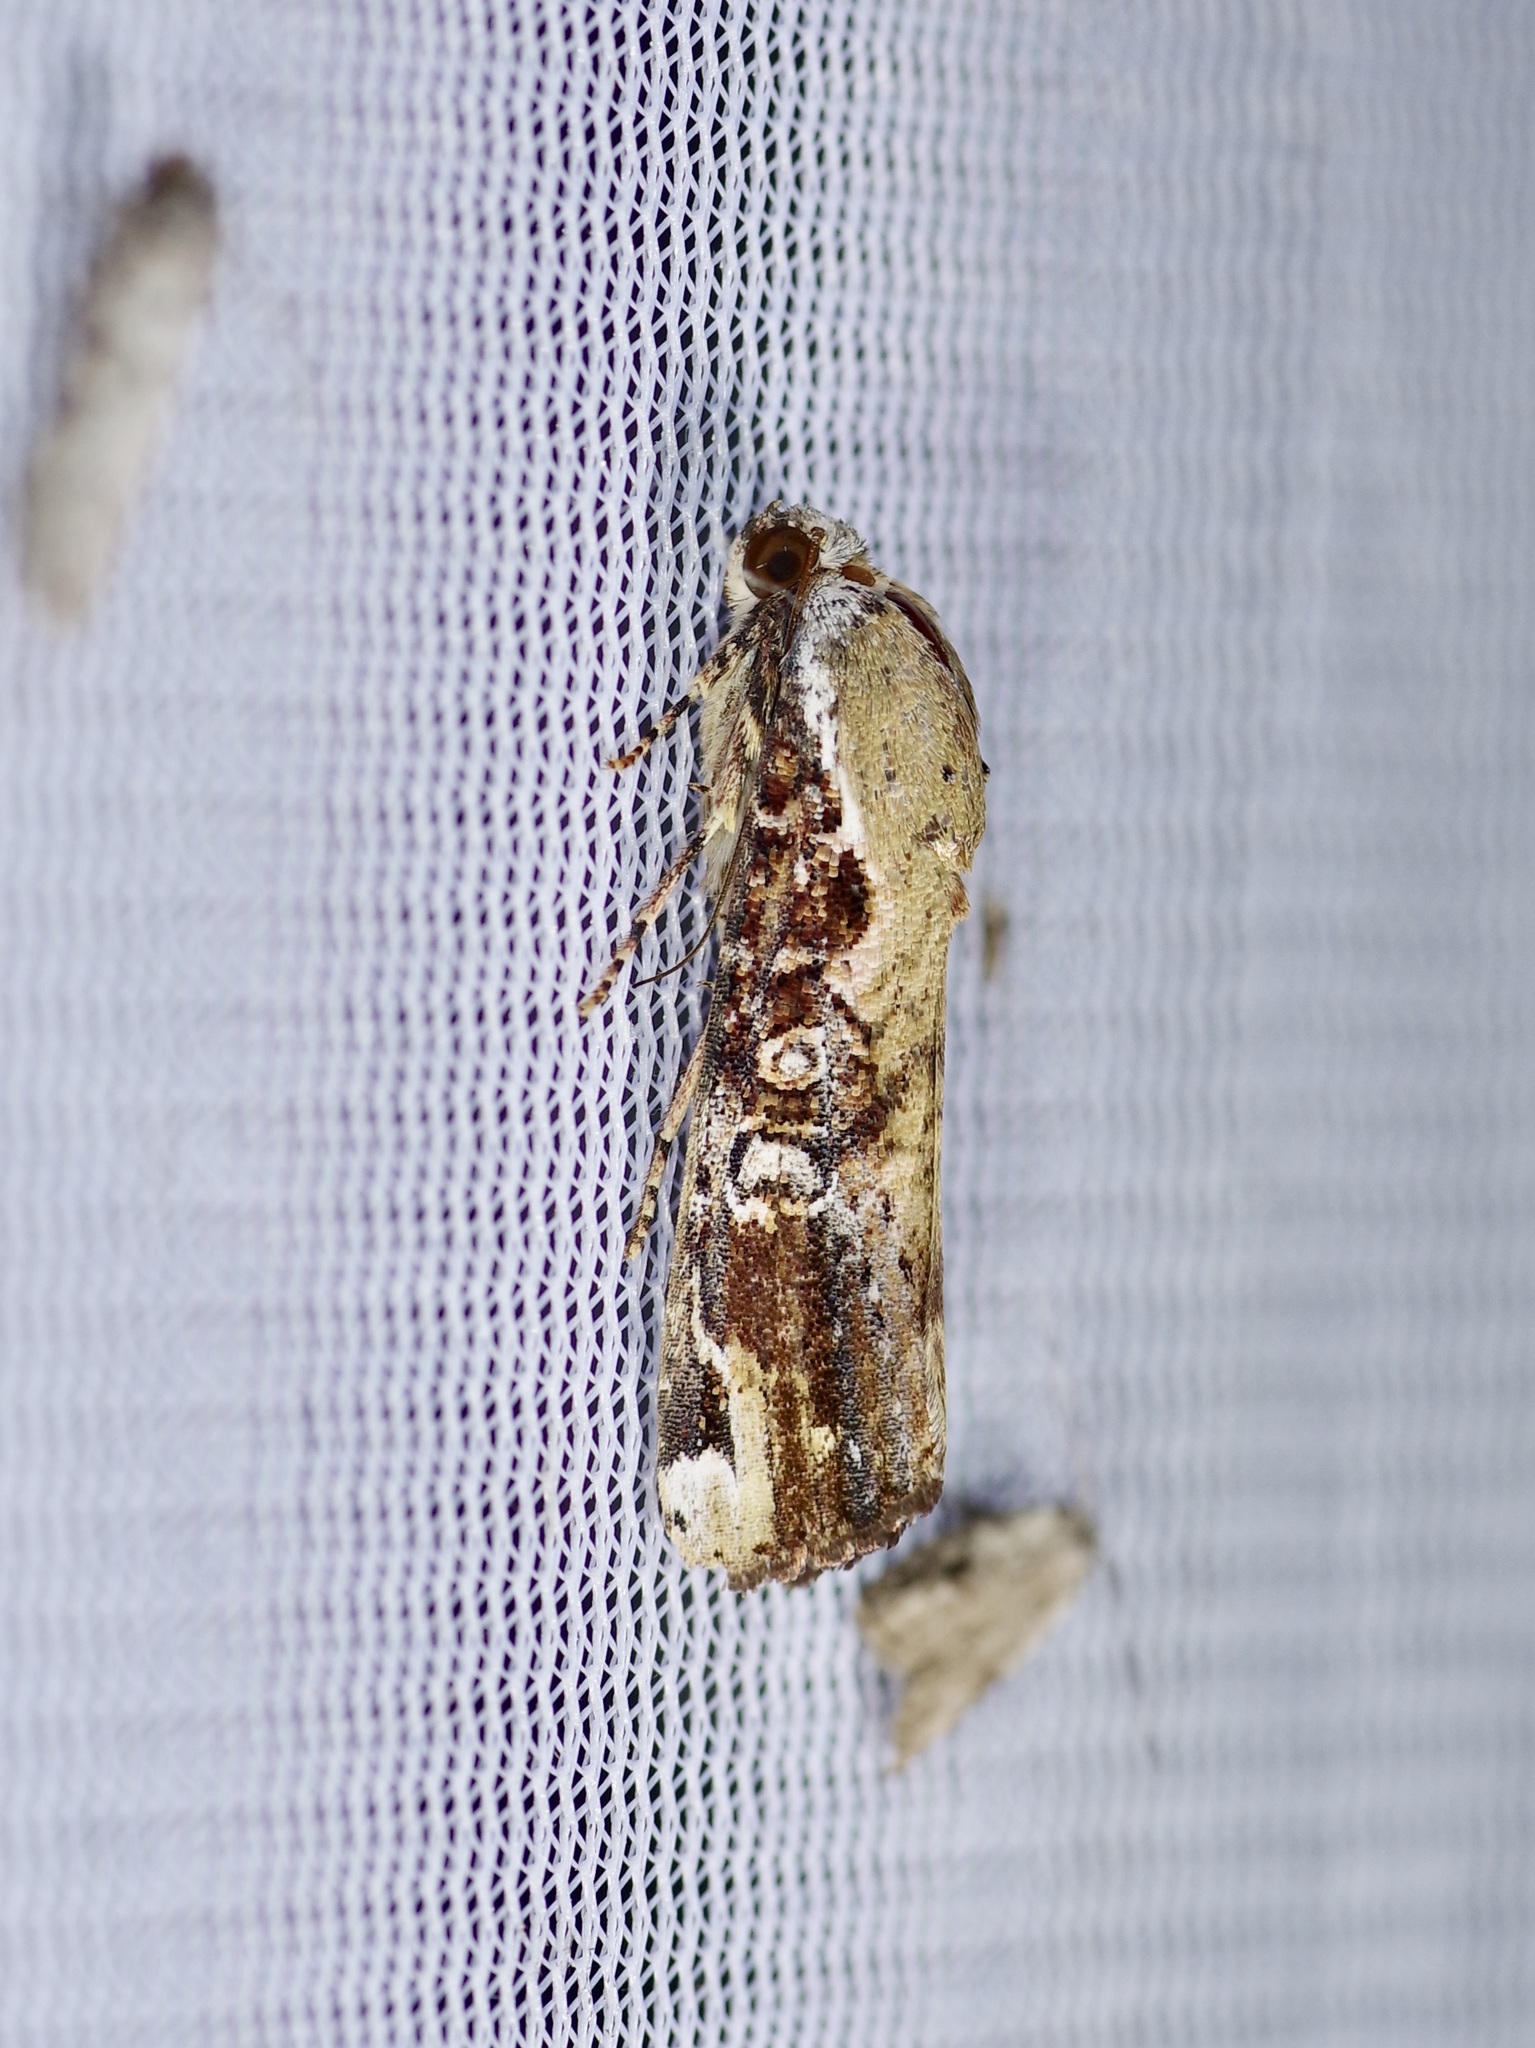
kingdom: Animalia
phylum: Arthropoda
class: Insecta
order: Lepidoptera
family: Noctuidae
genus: Magusa
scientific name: Magusa divaricata
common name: Orb narrow-winged moth
